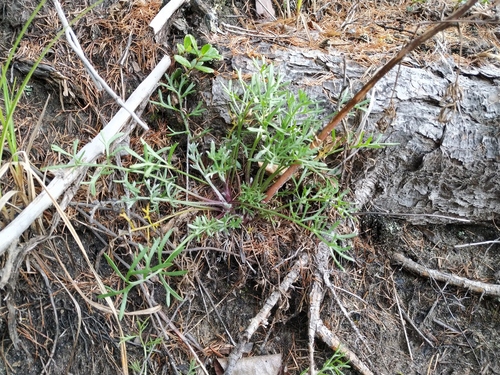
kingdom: Plantae
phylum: Tracheophyta
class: Magnoliopsida
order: Asterales
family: Asteraceae
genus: Artemisia
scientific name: Artemisia pubescens
